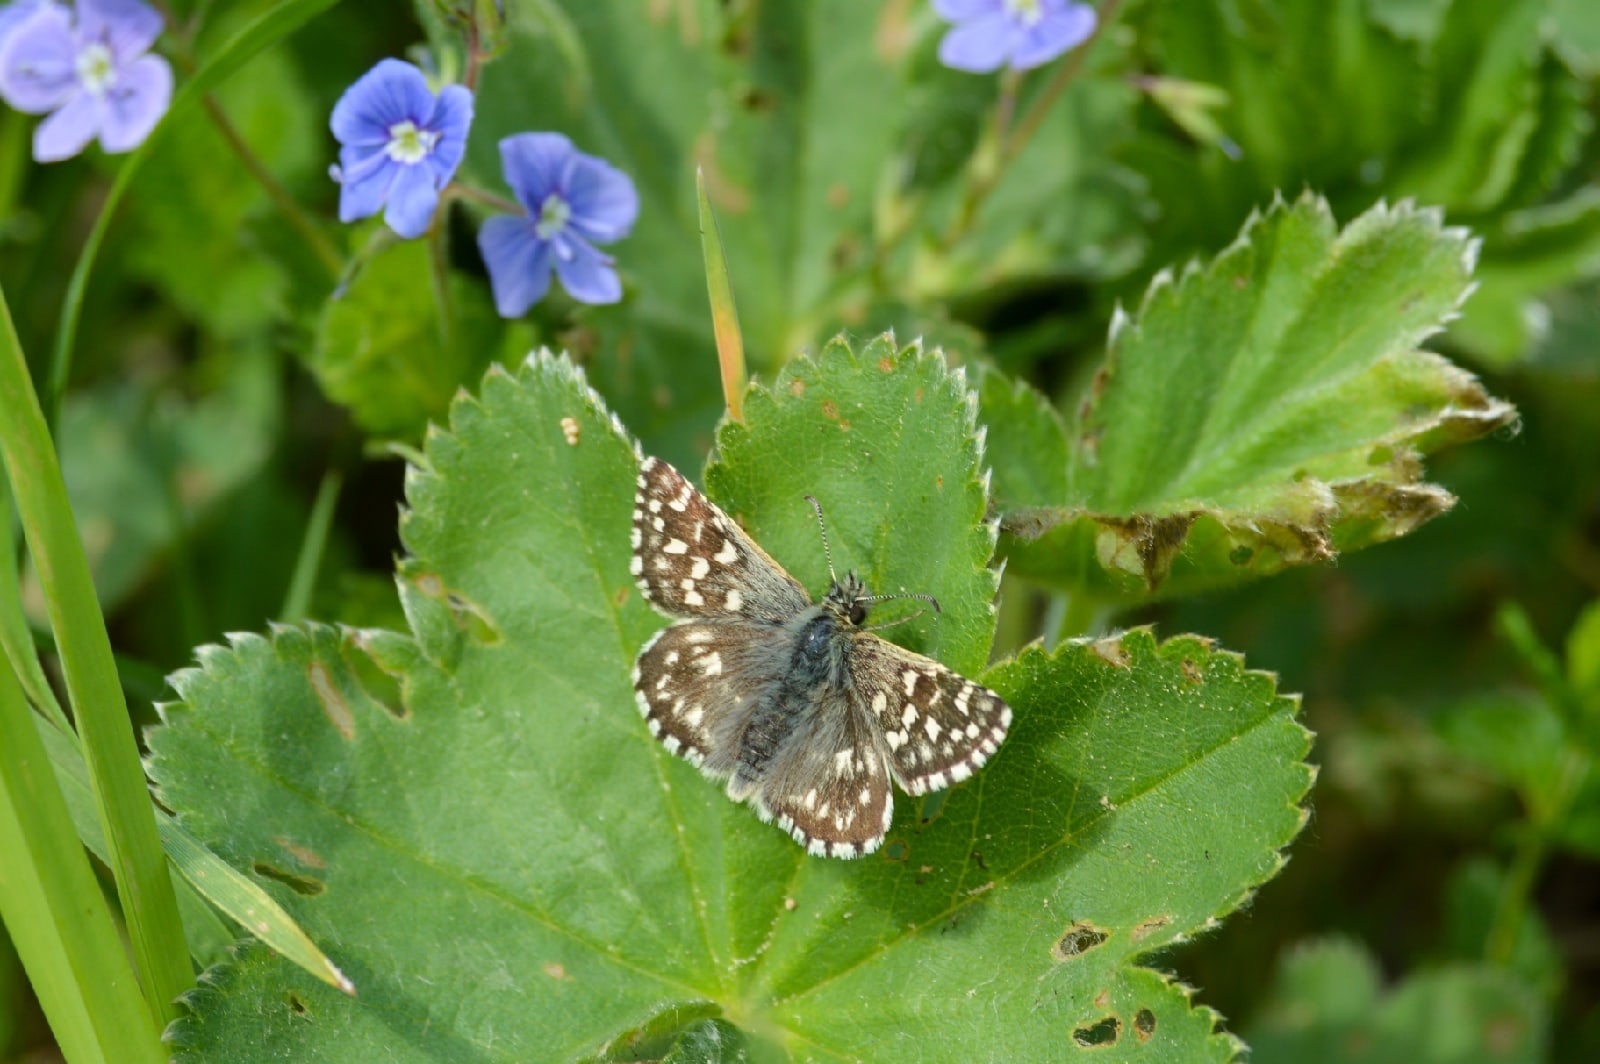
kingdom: Animalia
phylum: Arthropoda
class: Insecta
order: Lepidoptera
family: Hesperiidae
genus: Pyrgus
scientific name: Pyrgus malvae
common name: Grizzled skipper
